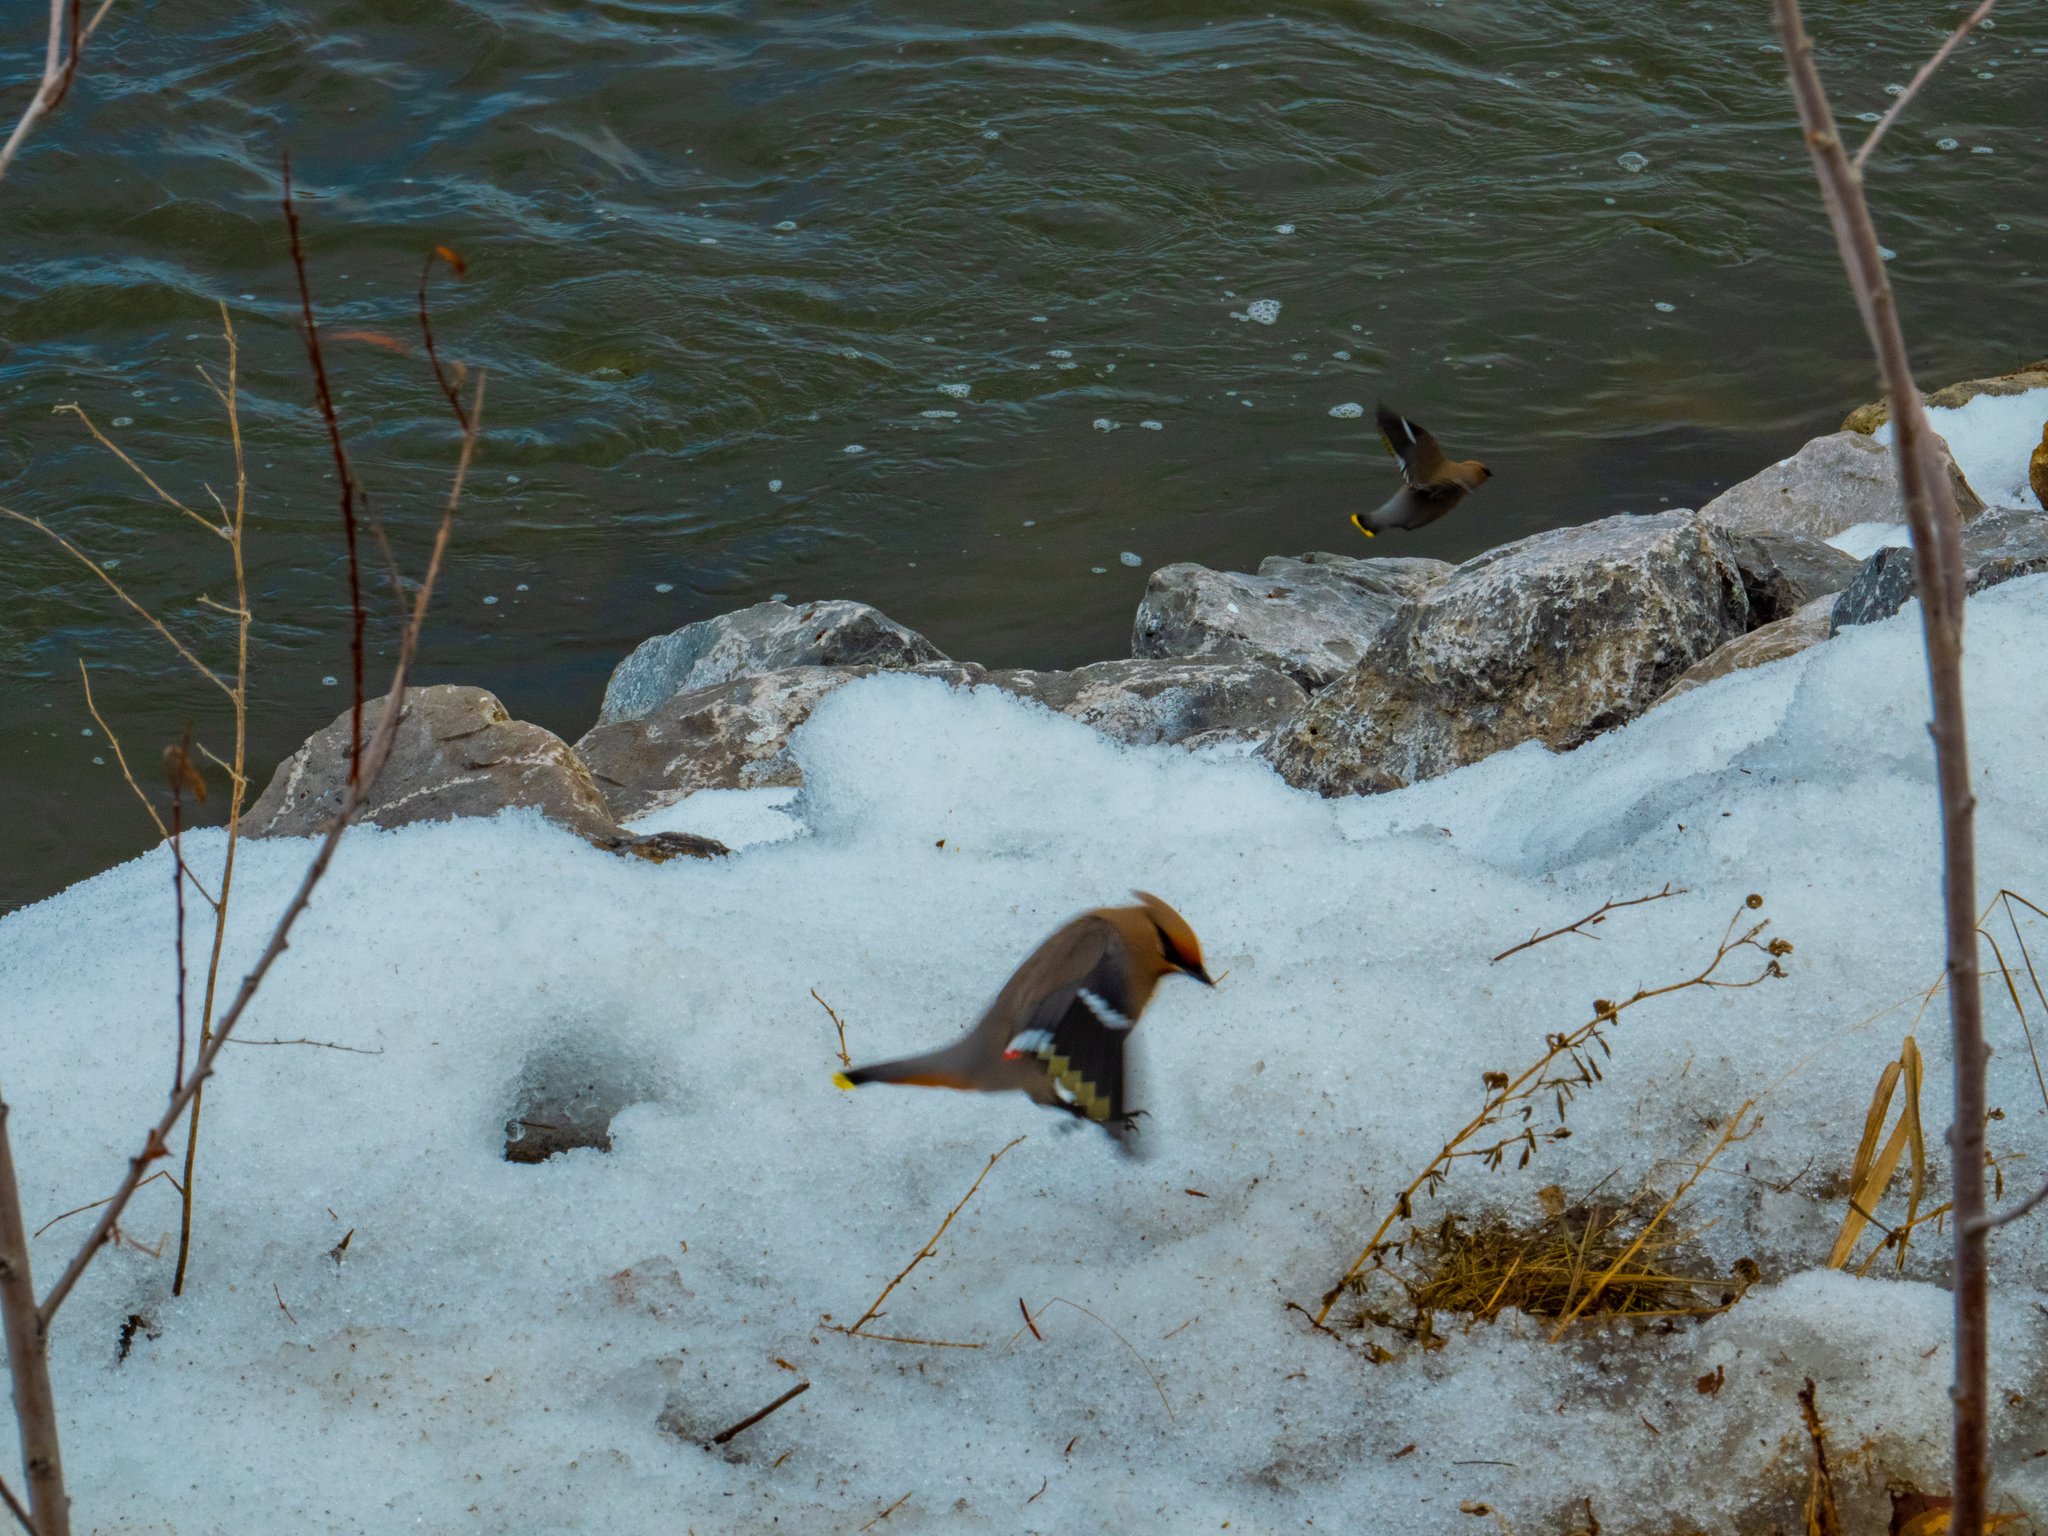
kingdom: Animalia
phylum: Chordata
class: Aves
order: Passeriformes
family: Bombycillidae
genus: Bombycilla
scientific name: Bombycilla garrulus
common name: Bohemian waxwing
